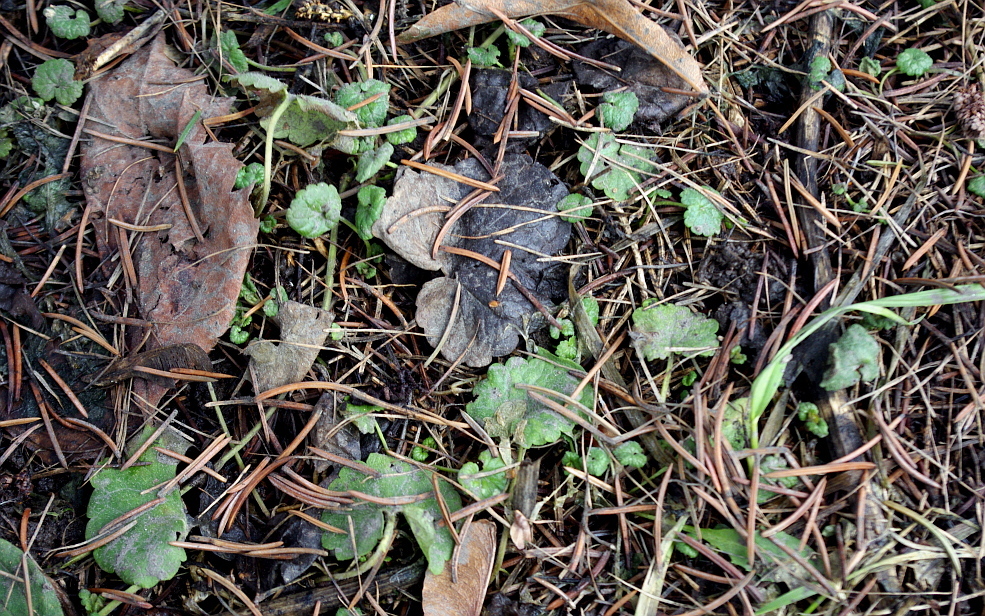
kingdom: Plantae
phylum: Tracheophyta
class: Magnoliopsida
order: Lamiales
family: Lamiaceae
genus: Glechoma
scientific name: Glechoma hederacea
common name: Ground ivy
